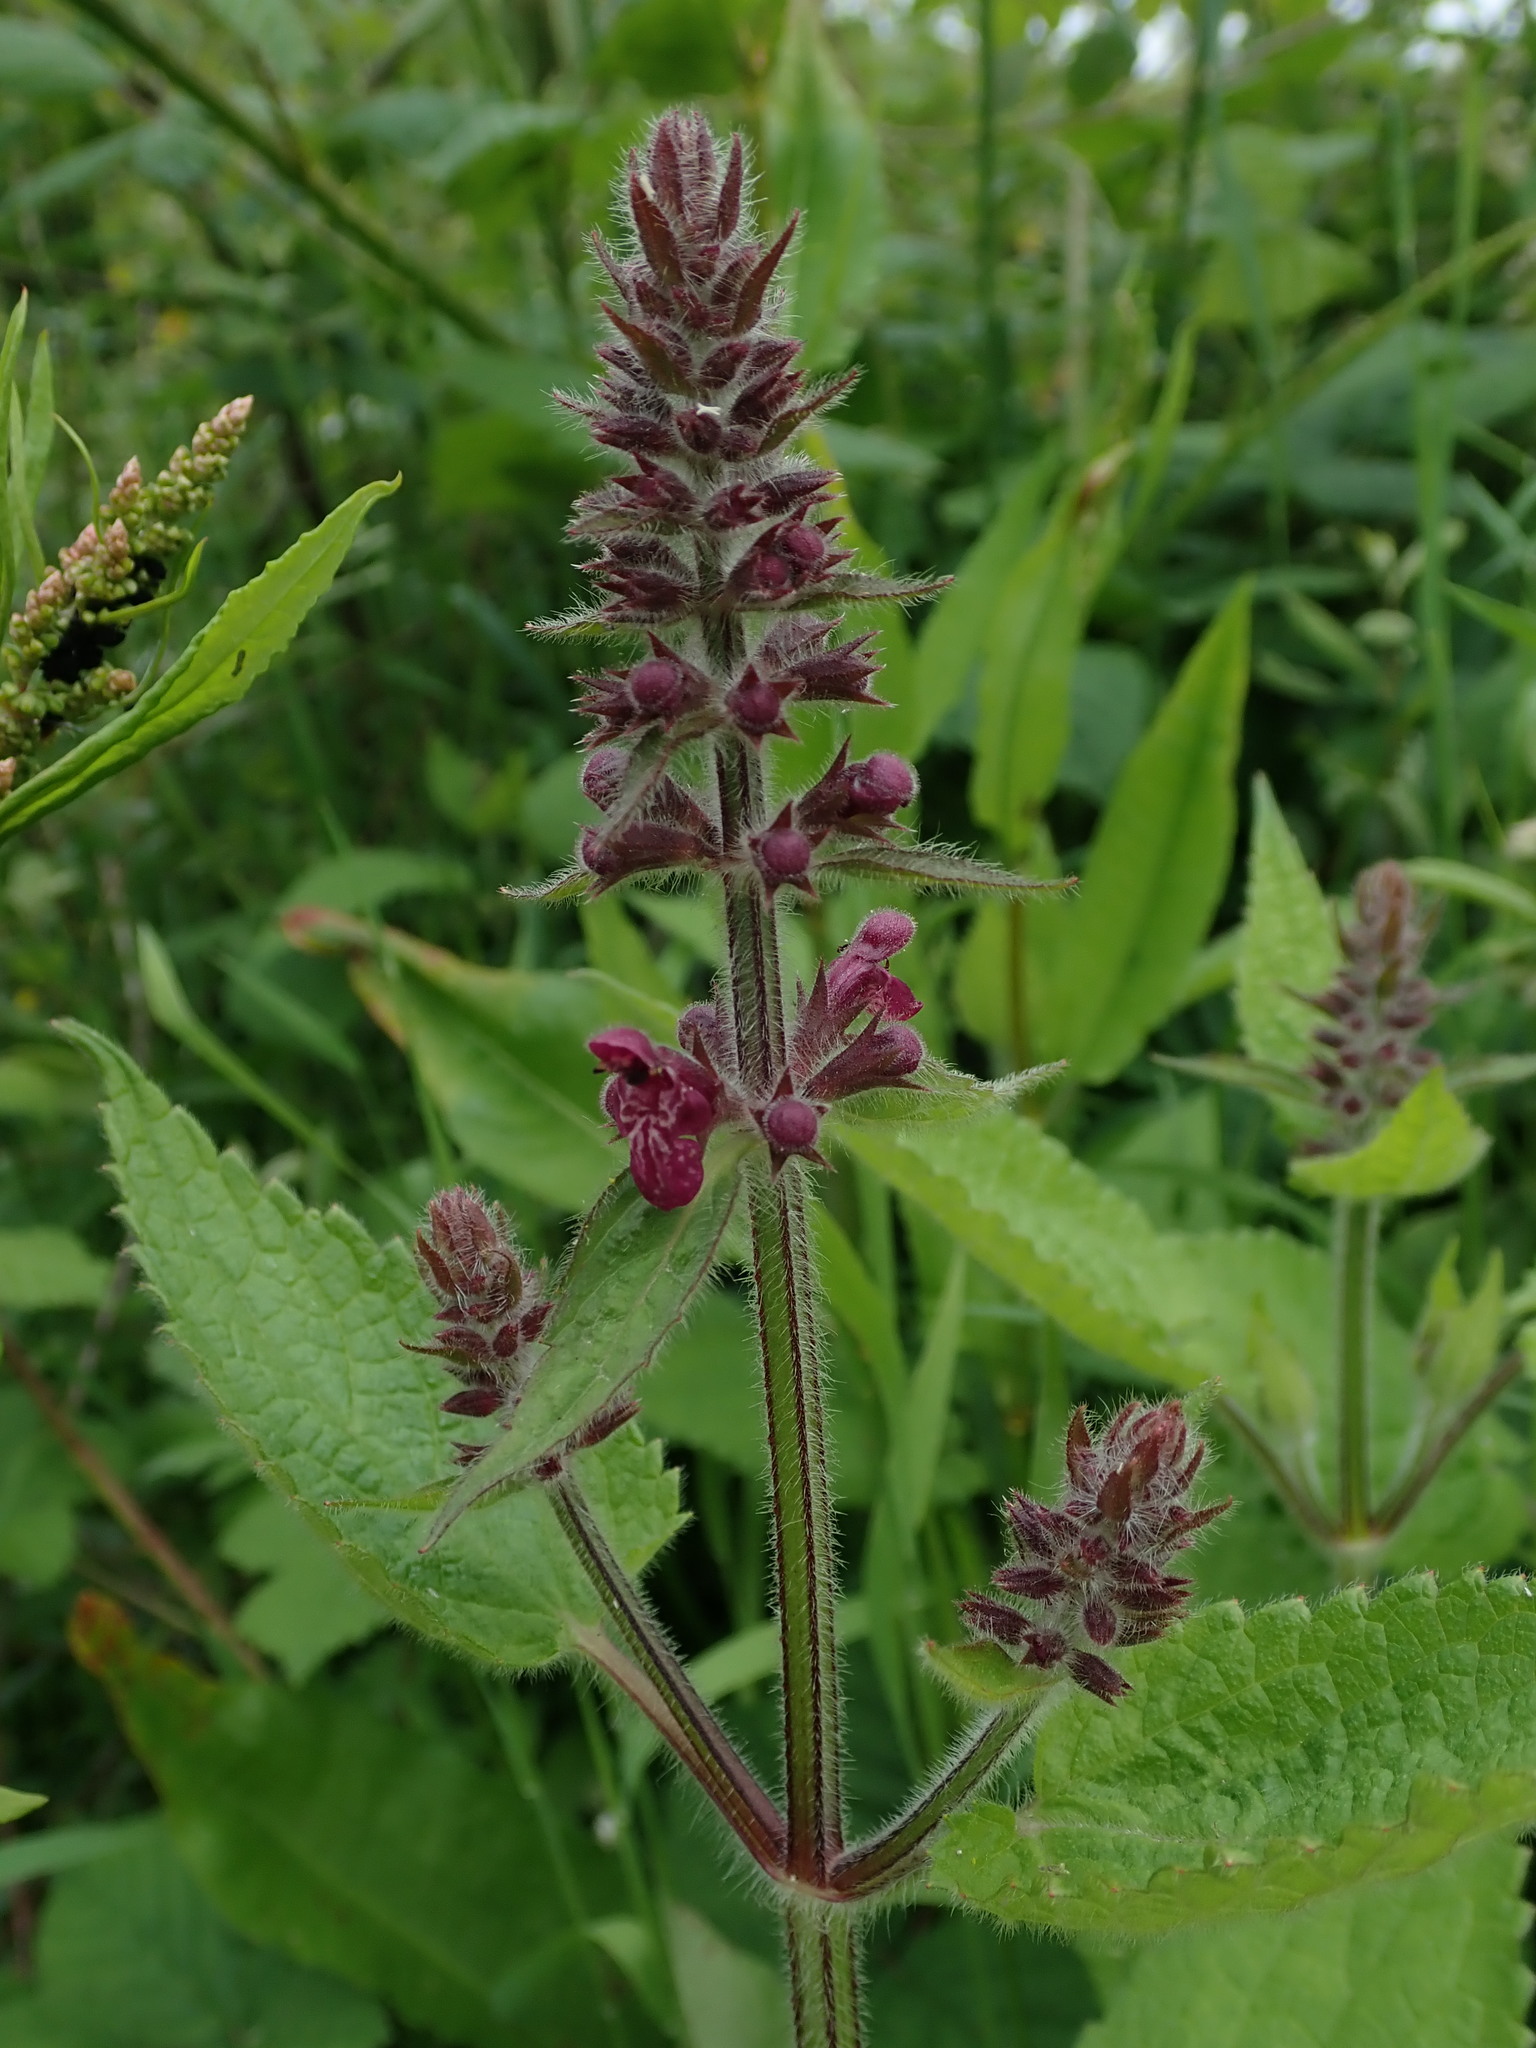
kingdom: Plantae
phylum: Tracheophyta
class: Magnoliopsida
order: Lamiales
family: Lamiaceae
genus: Stachys
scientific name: Stachys sylvatica
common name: Hedge woundwort
